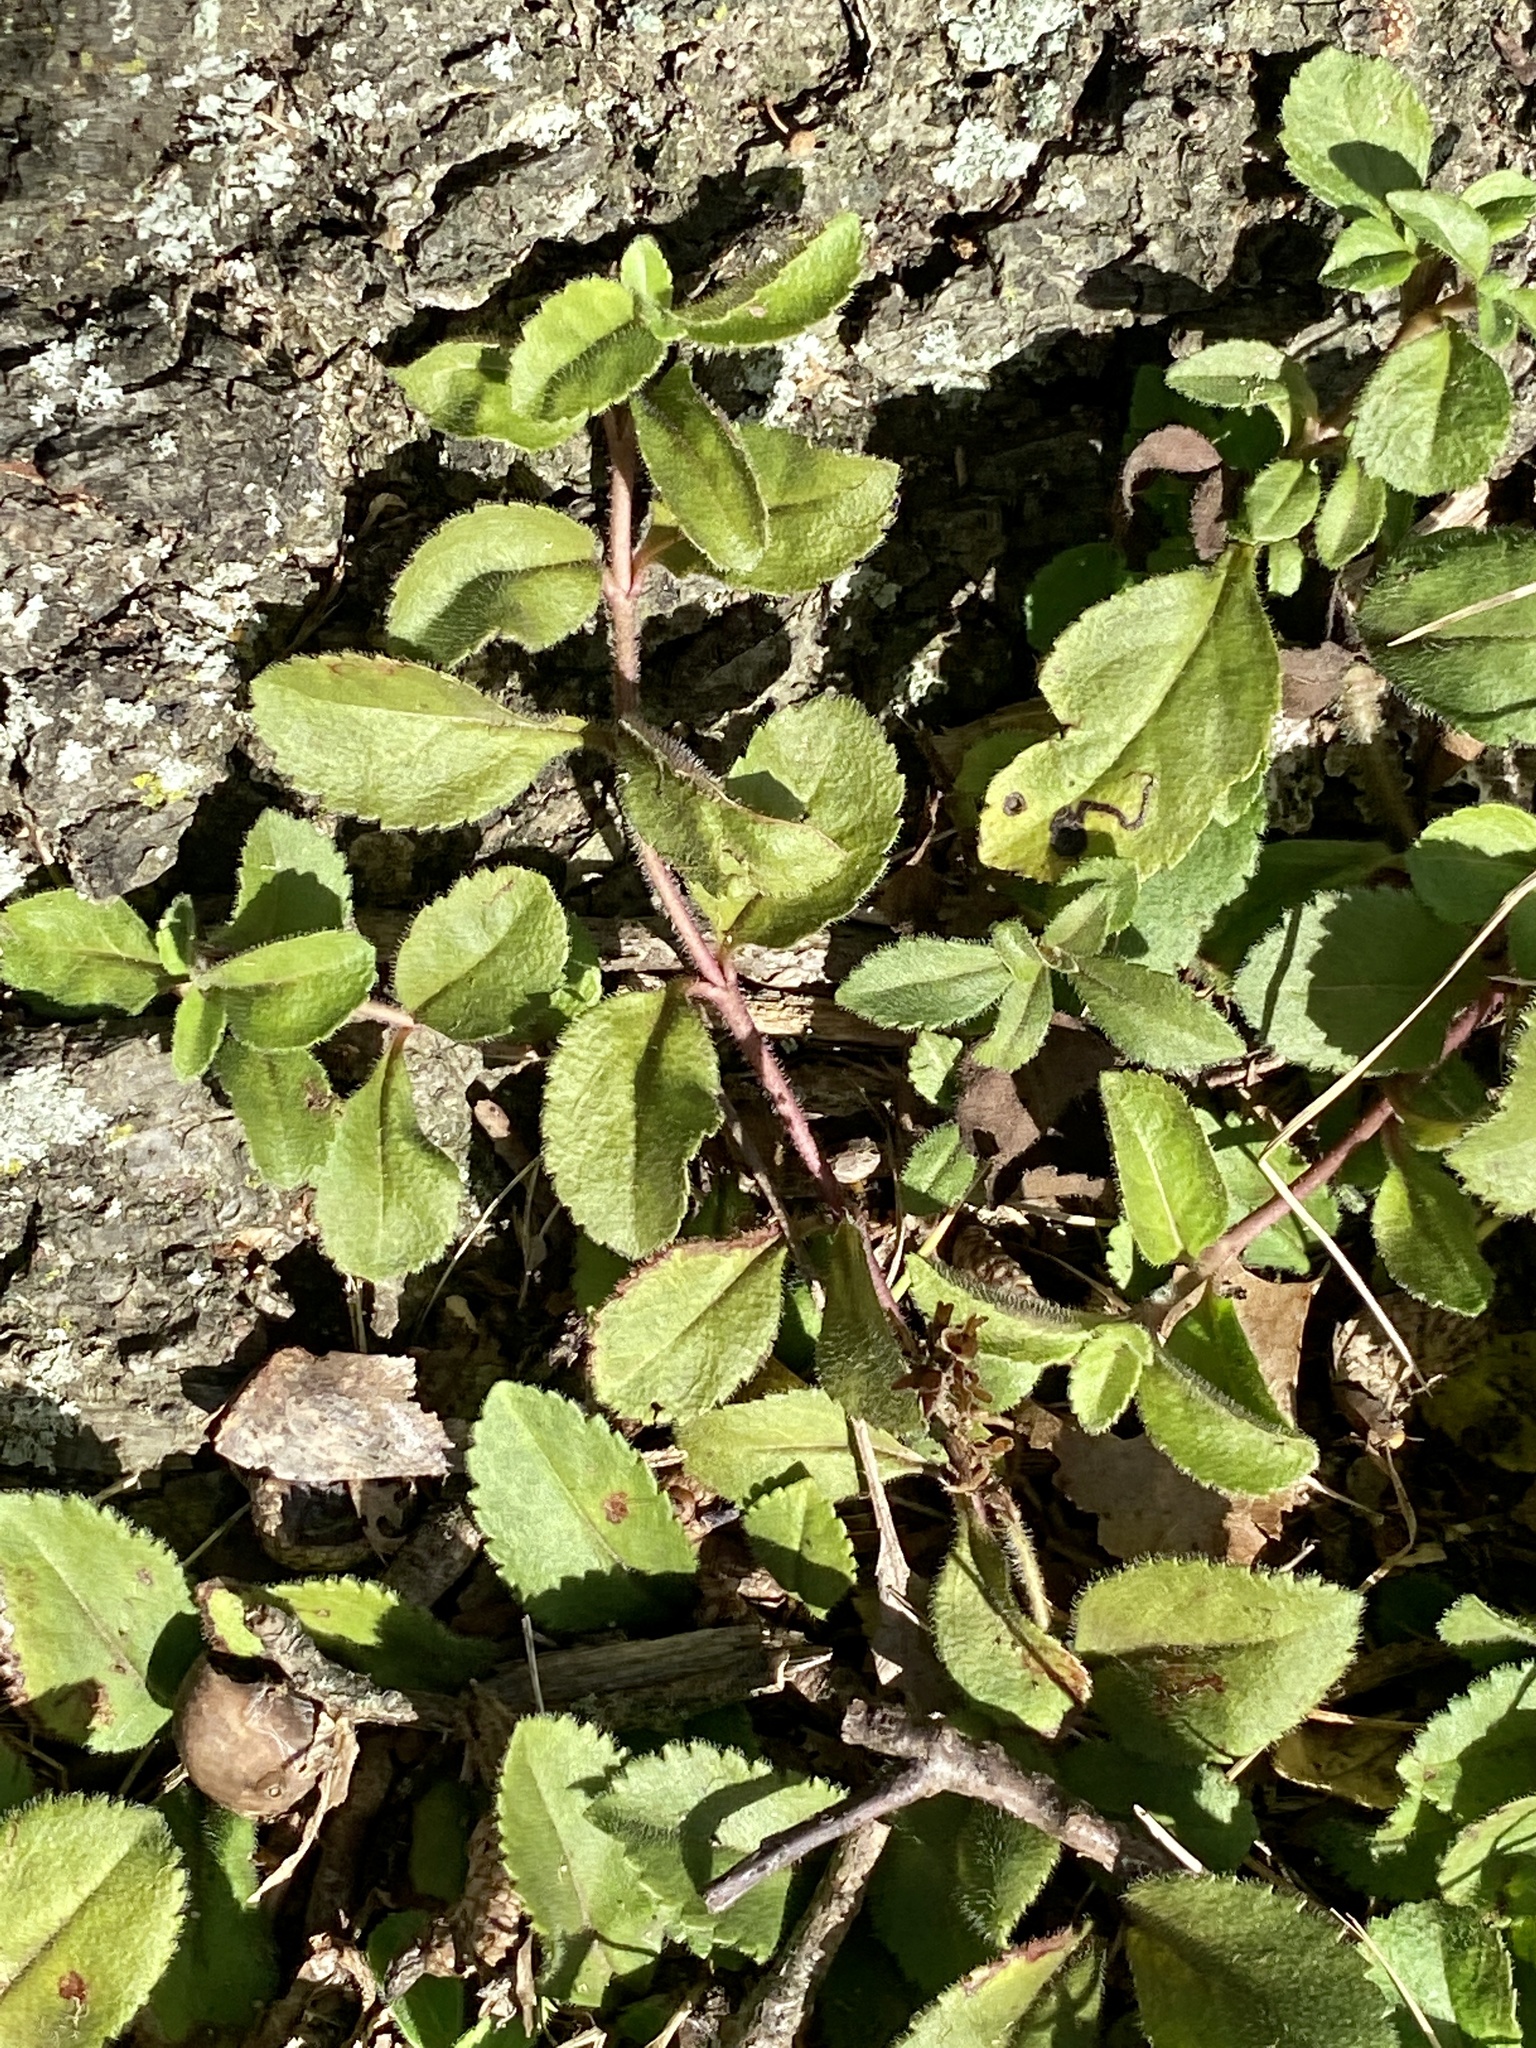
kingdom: Plantae
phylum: Tracheophyta
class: Magnoliopsida
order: Lamiales
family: Plantaginaceae
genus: Veronica
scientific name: Veronica officinalis
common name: Common speedwell
